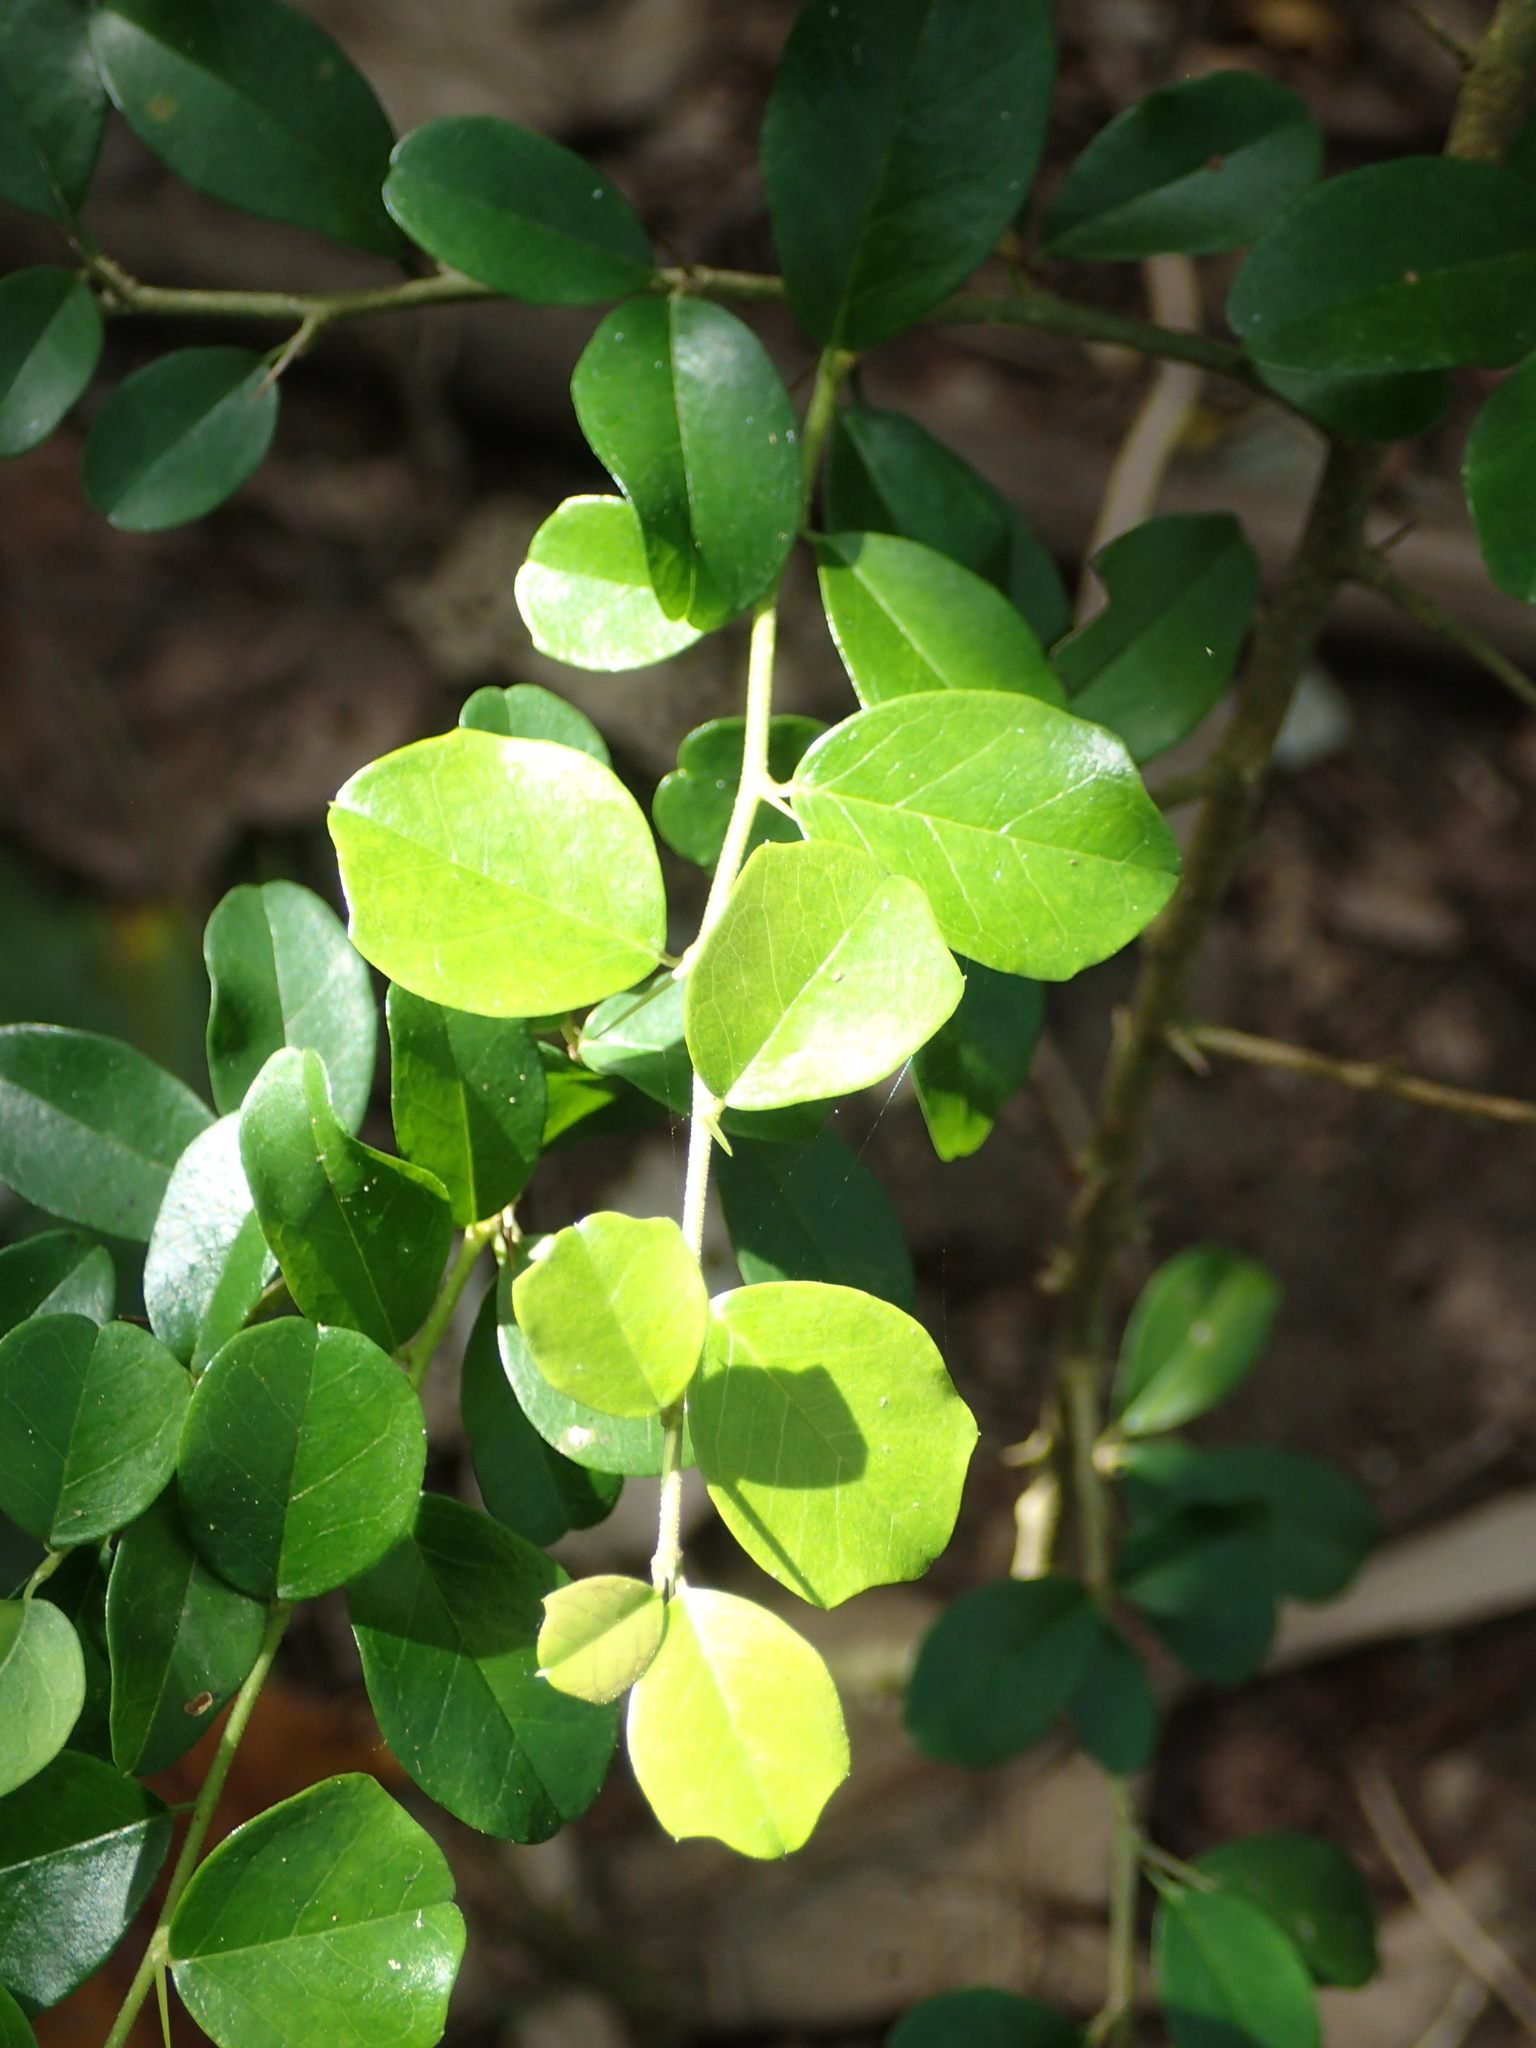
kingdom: Plantae
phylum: Tracheophyta
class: Magnoliopsida
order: Rosales
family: Moraceae
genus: Maclura
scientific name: Maclura cochinchinensis
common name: Cockspurthorn
